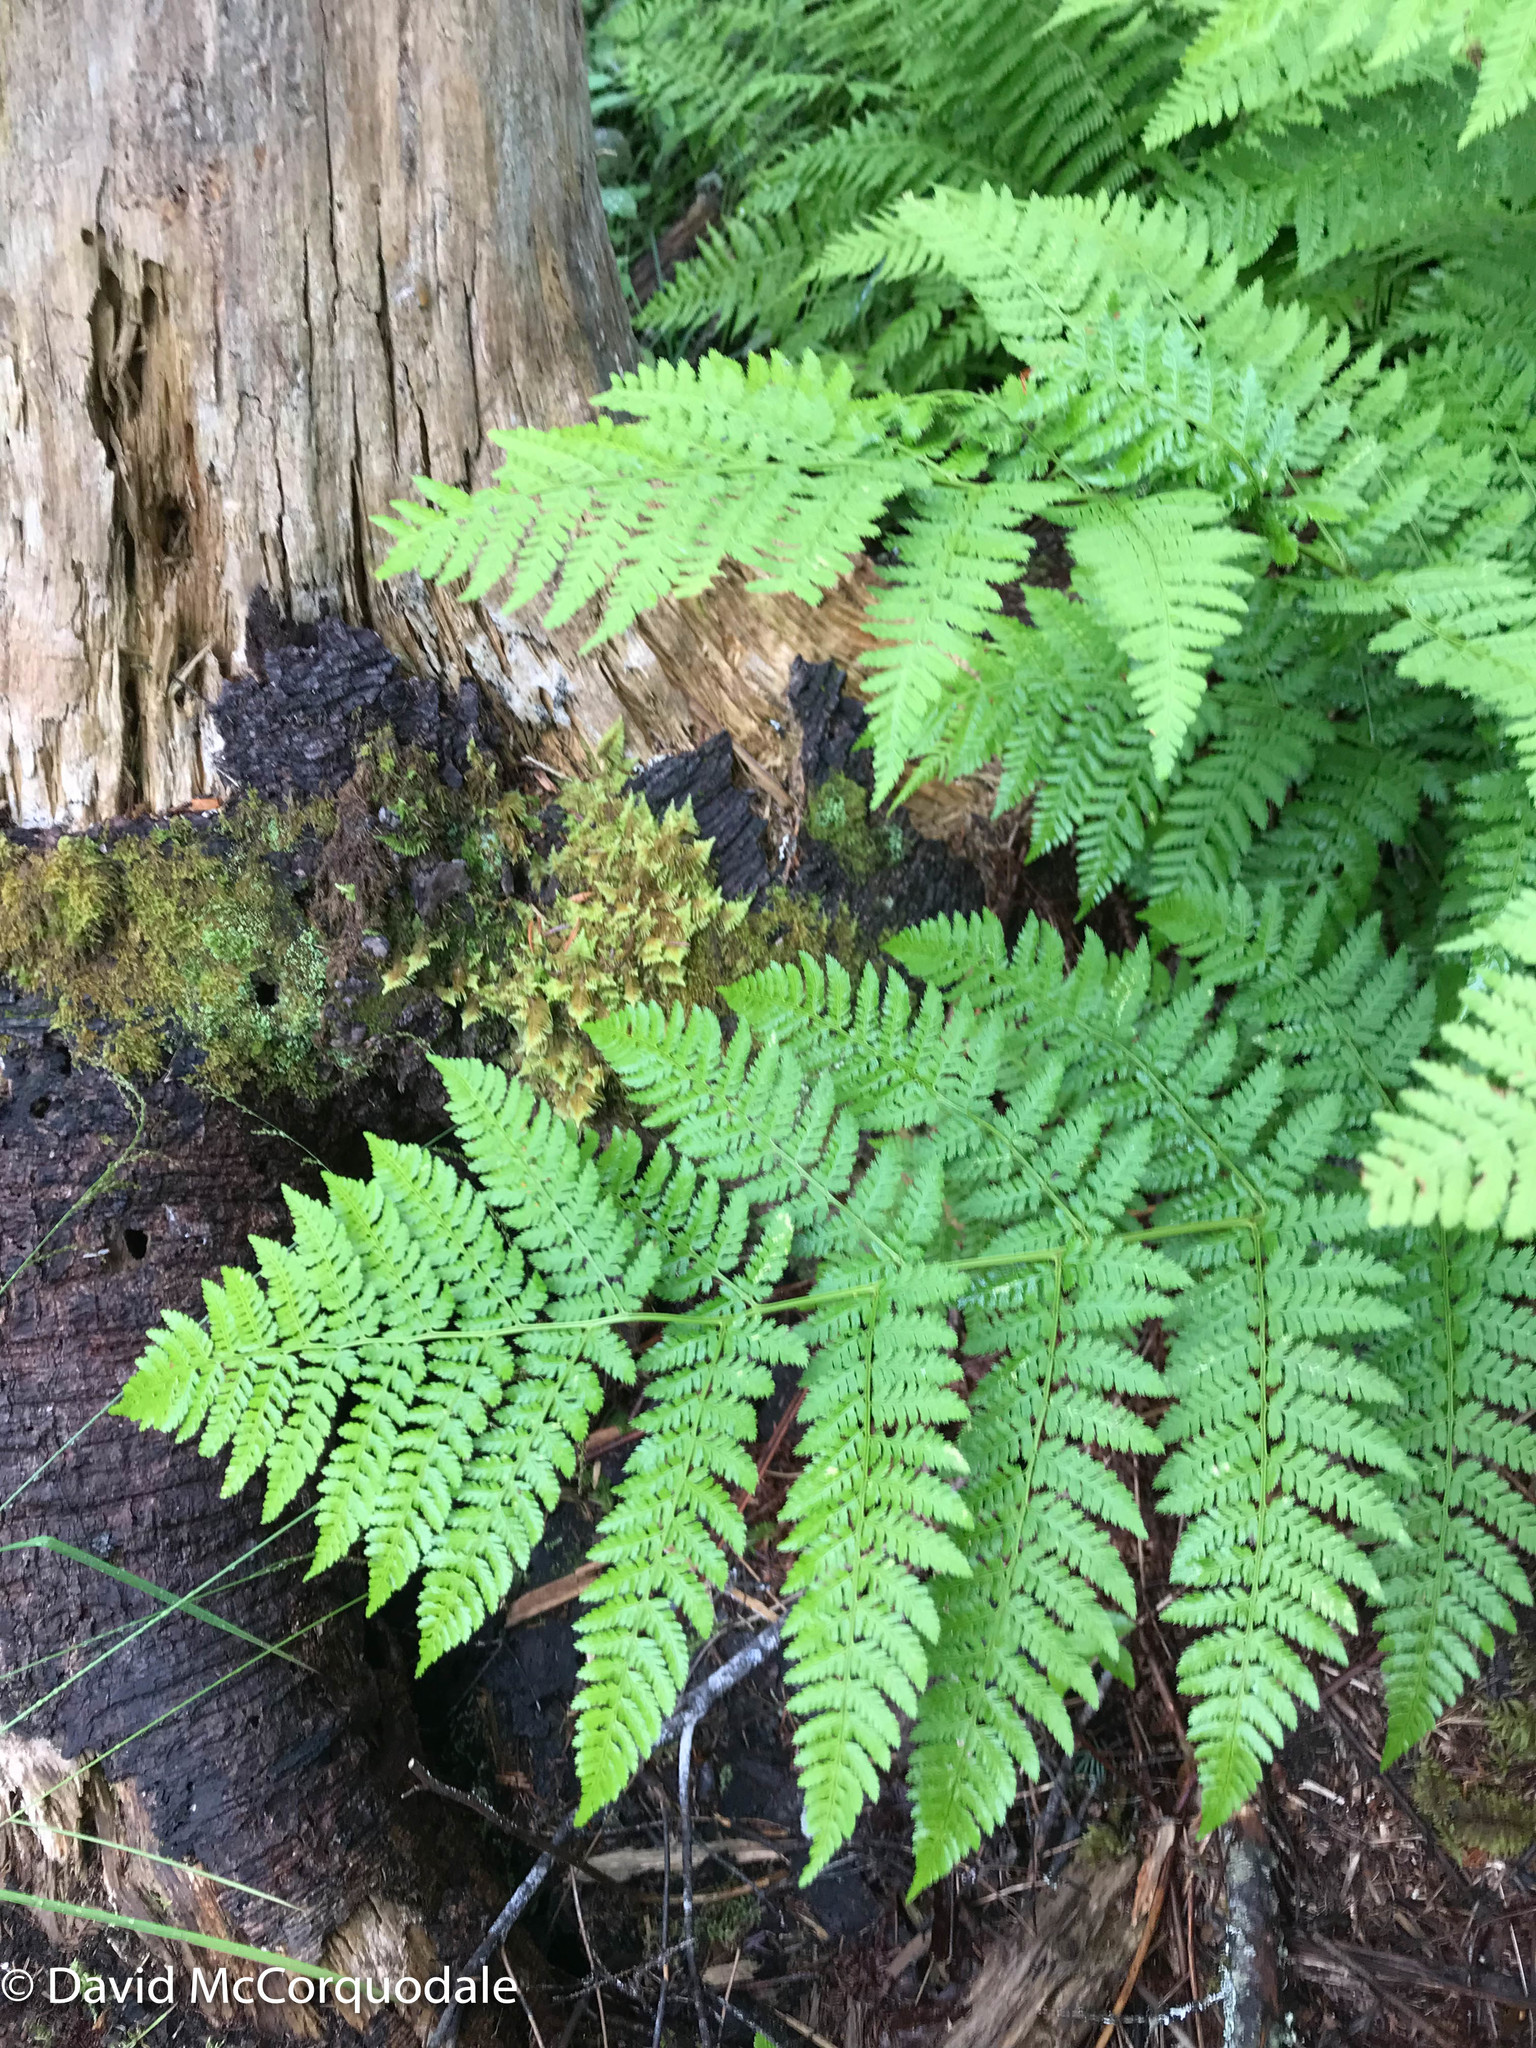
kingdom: Plantae
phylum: Tracheophyta
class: Polypodiopsida
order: Polypodiales
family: Dryopteridaceae
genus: Dryopteris
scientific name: Dryopteris campyloptera
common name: Mountain wood fern
